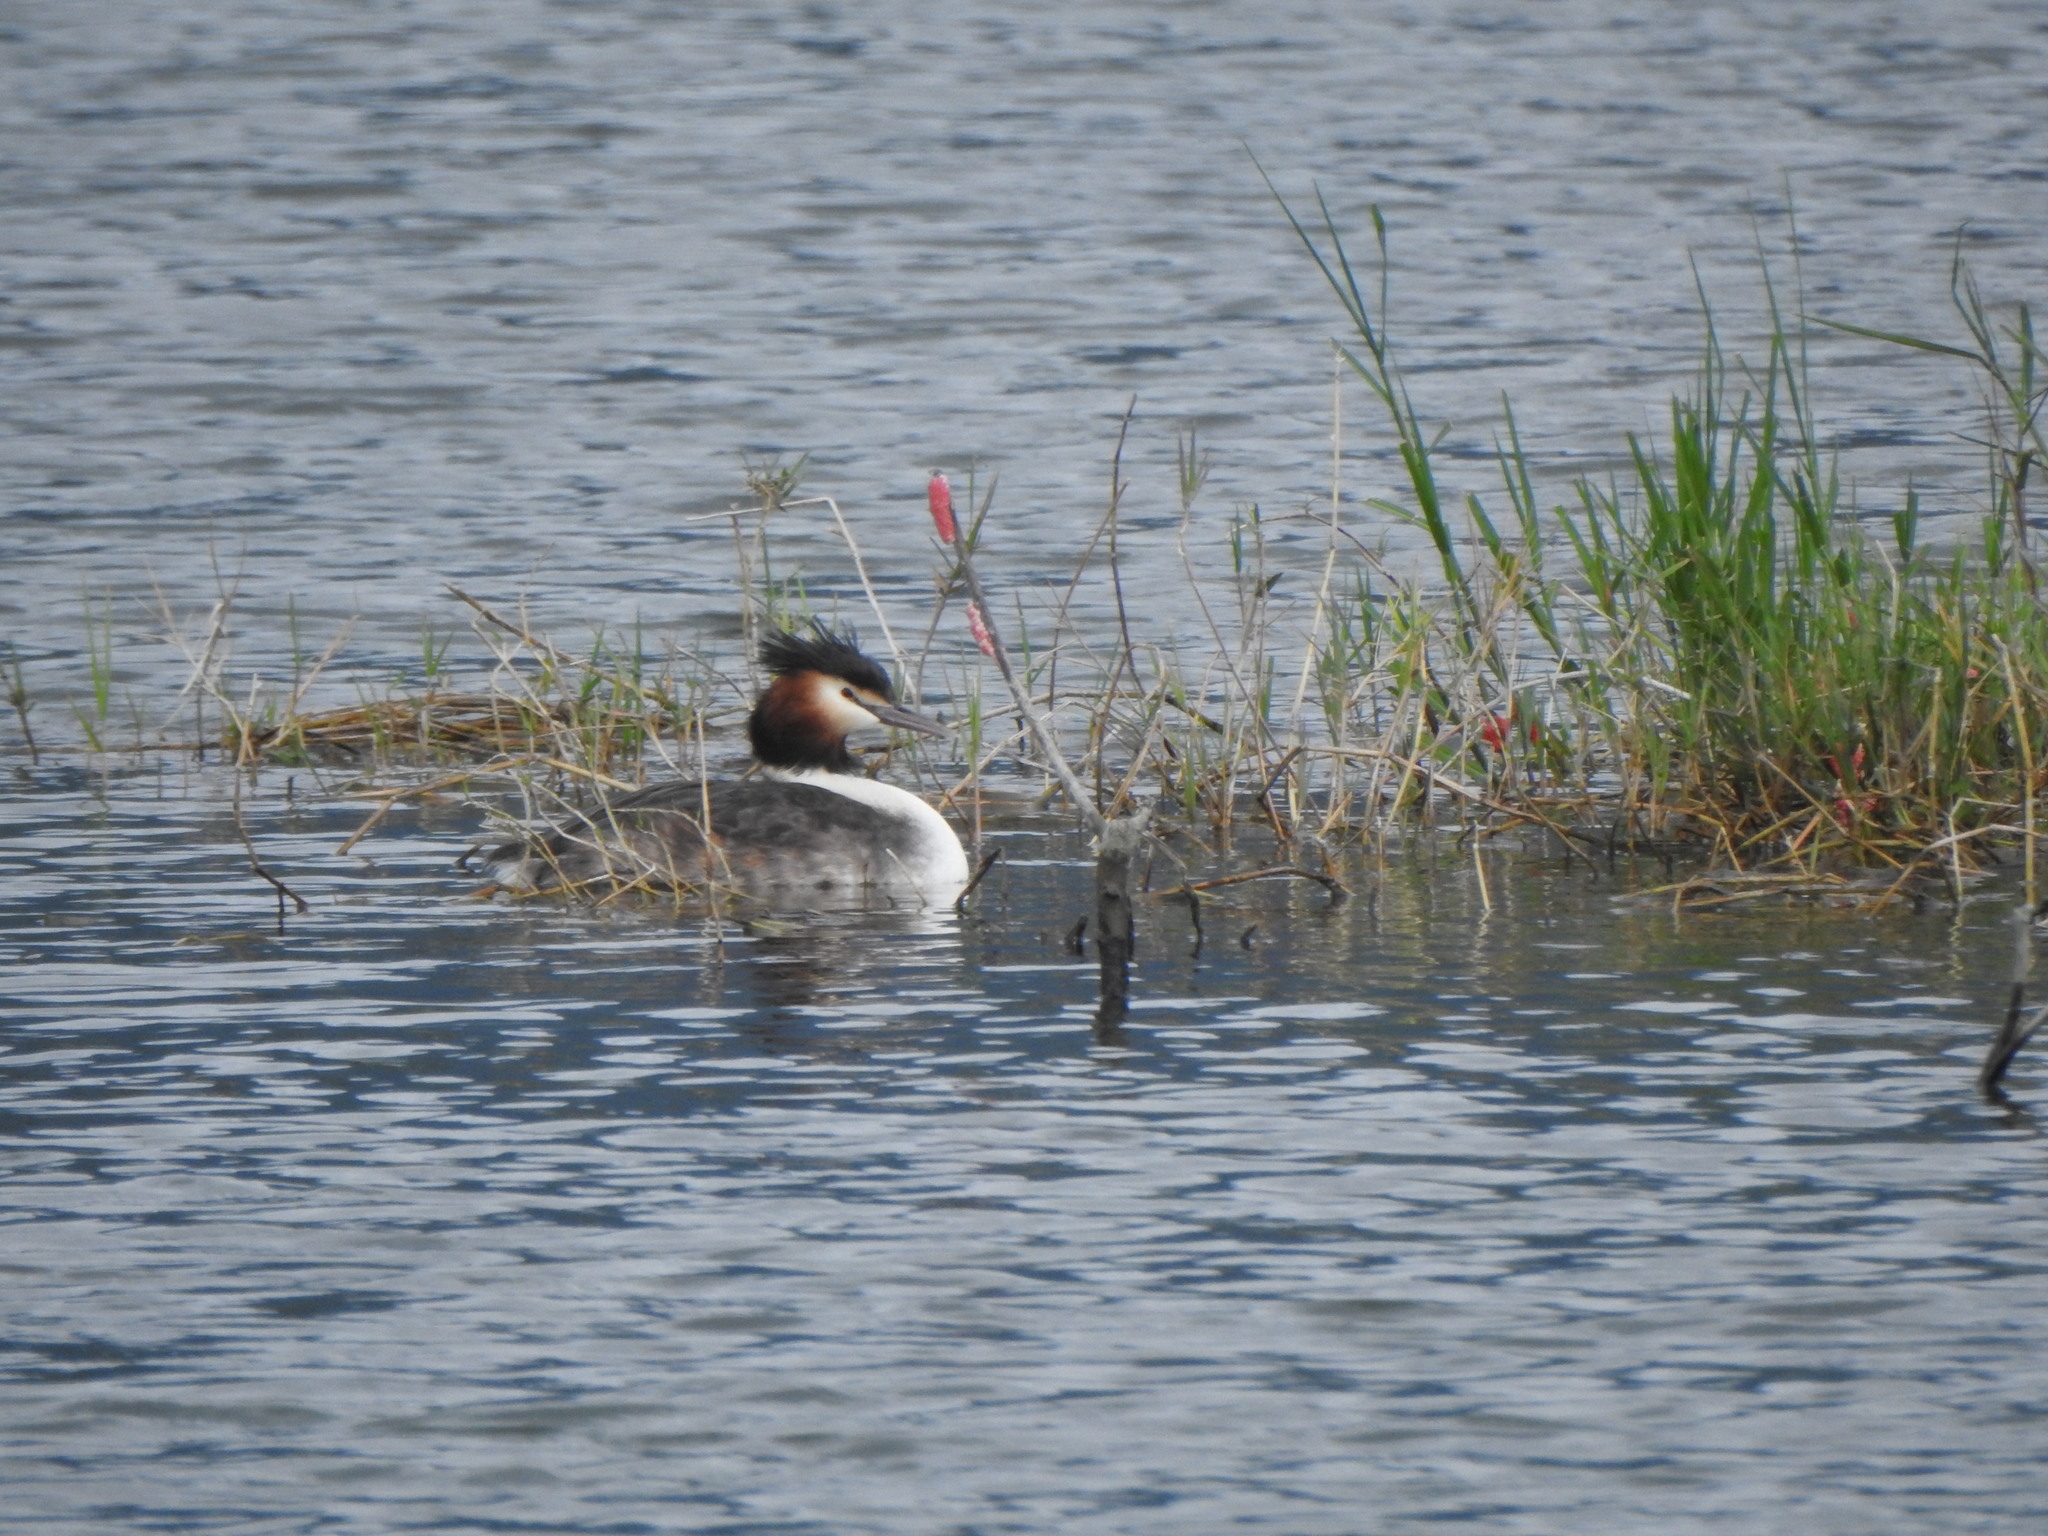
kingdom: Animalia
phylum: Chordata
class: Aves
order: Podicipediformes
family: Podicipedidae
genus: Podiceps
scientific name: Podiceps cristatus
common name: Great crested grebe
